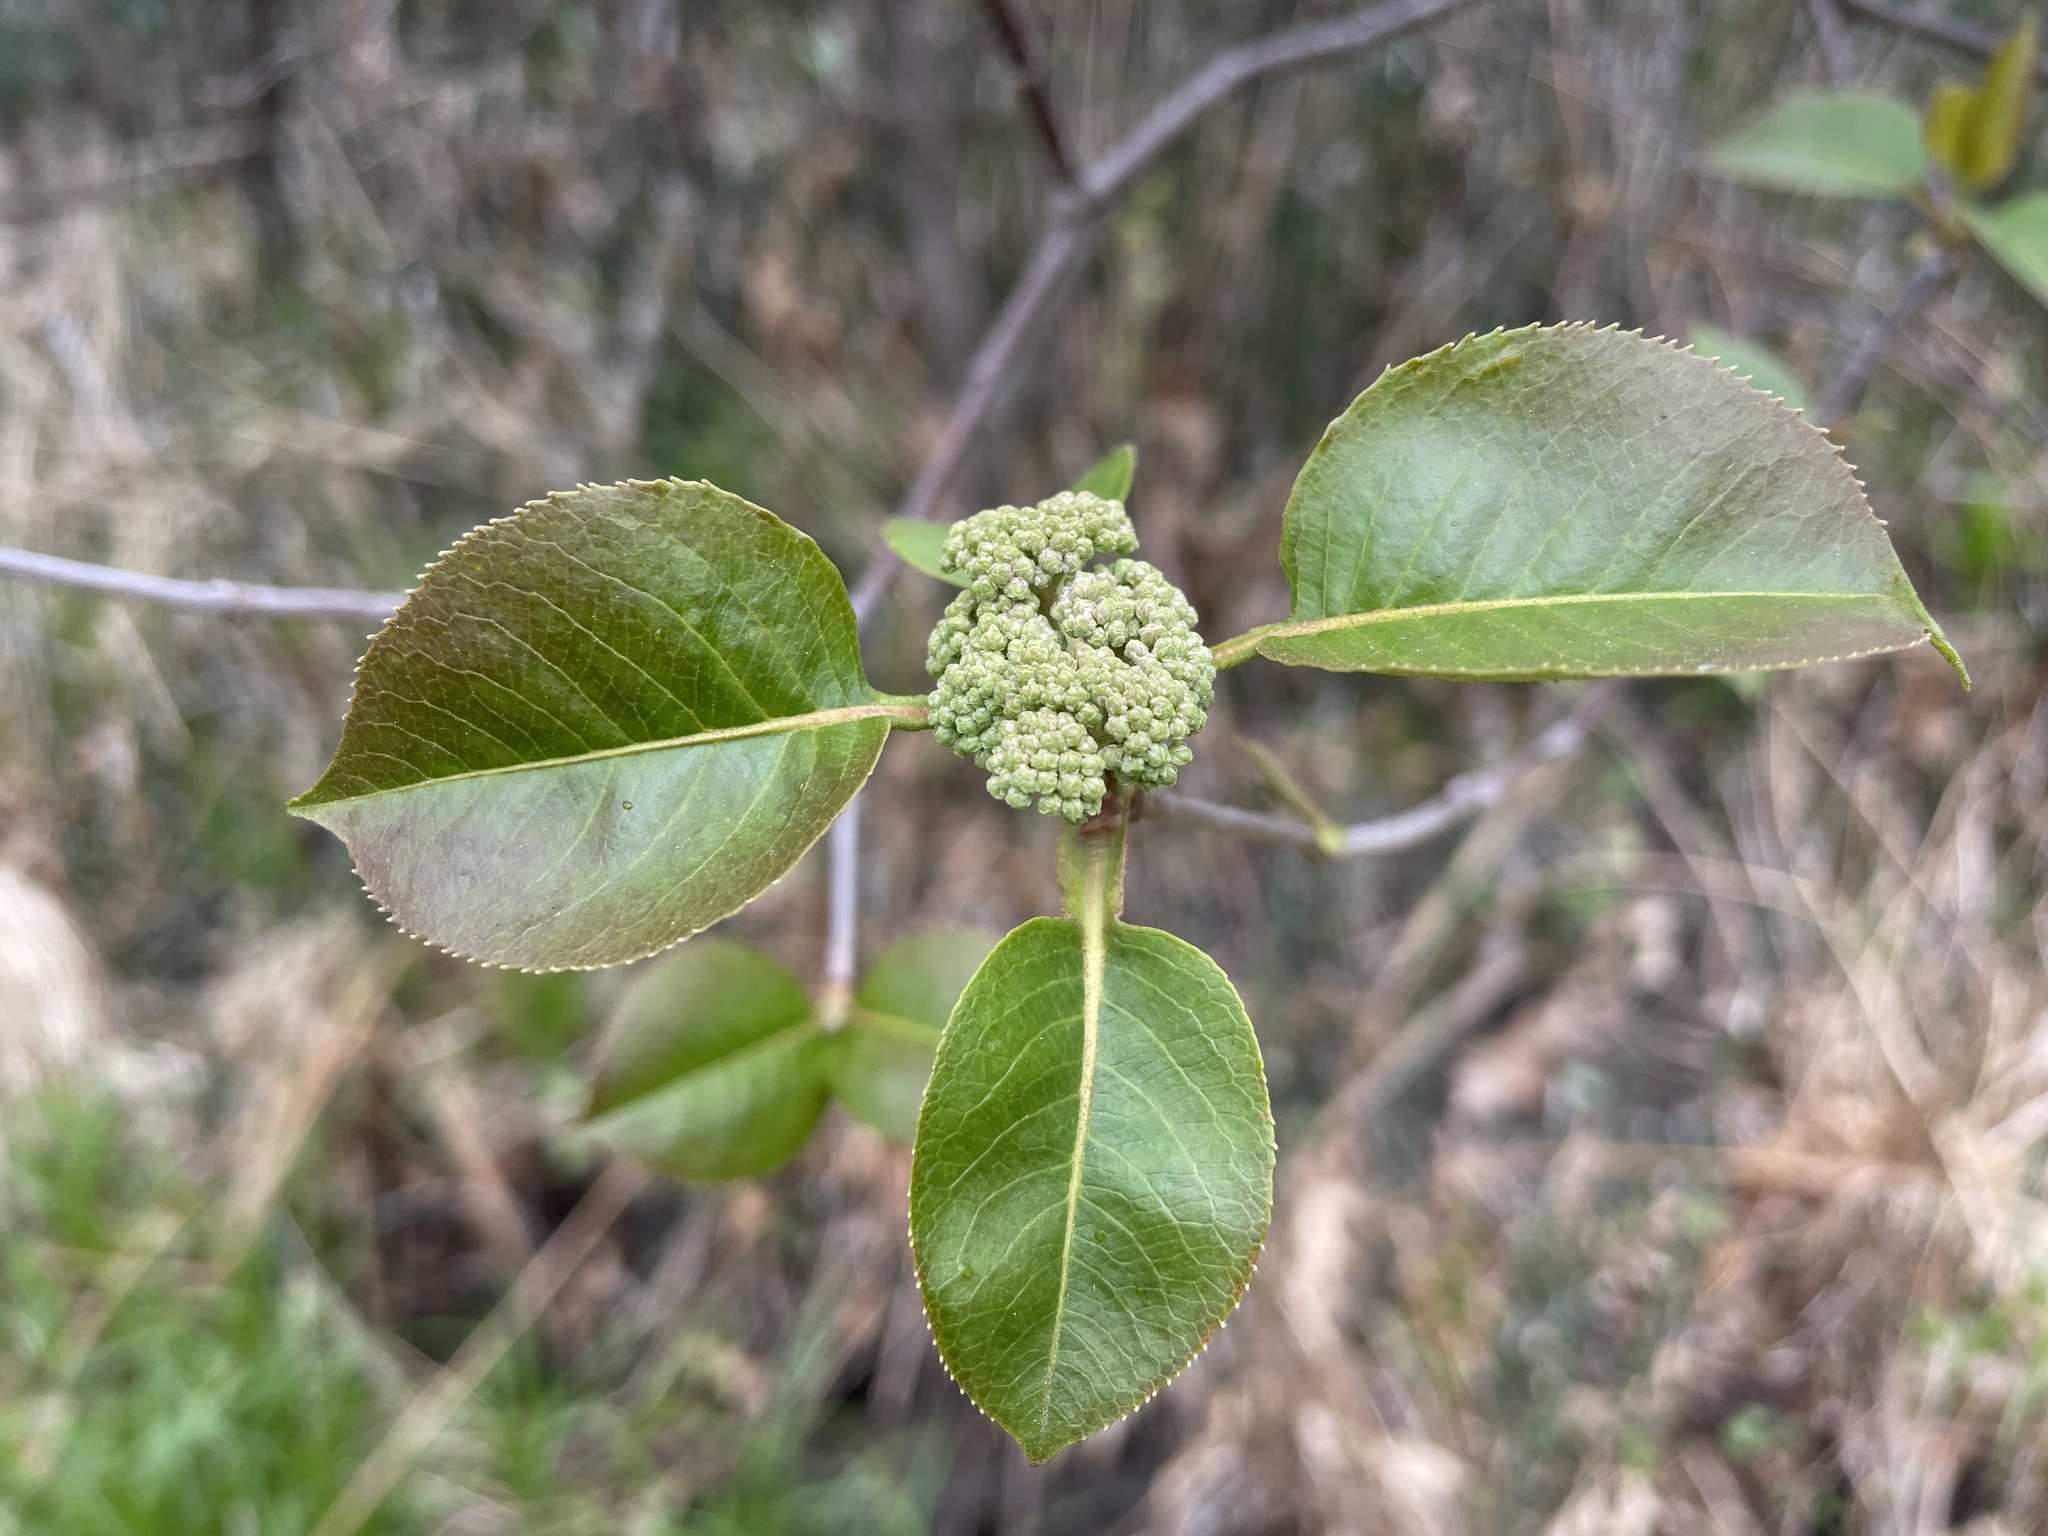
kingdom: Plantae
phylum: Tracheophyta
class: Magnoliopsida
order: Dipsacales
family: Viburnaceae
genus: Viburnum
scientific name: Viburnum lentago
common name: Black haw
